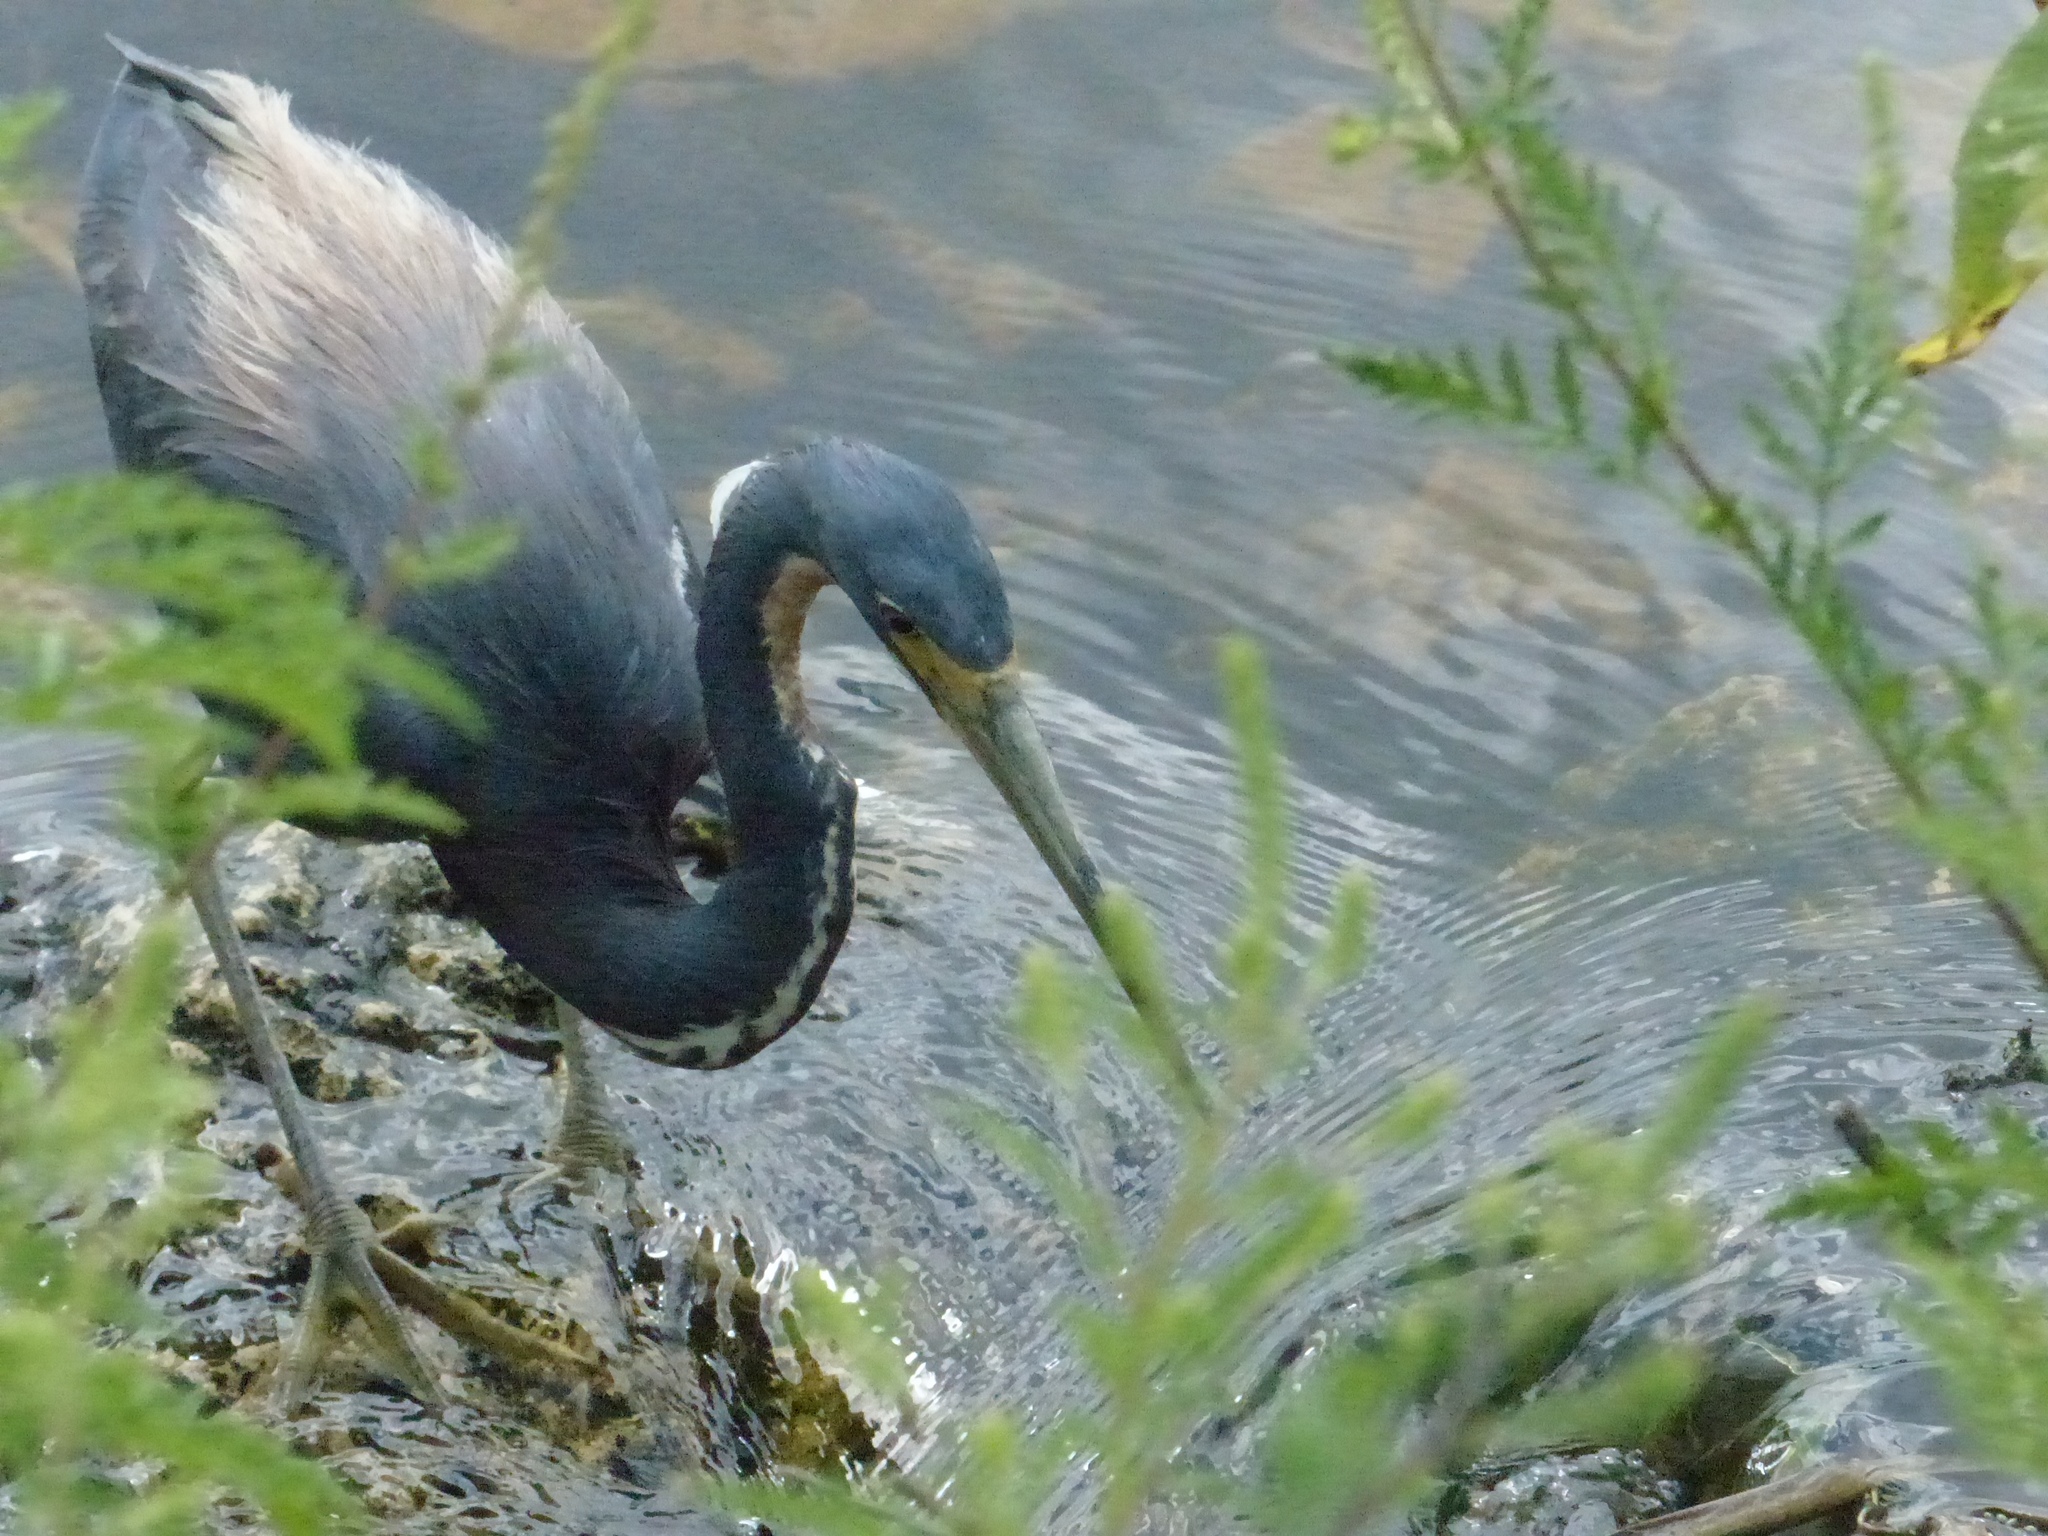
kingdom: Animalia
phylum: Chordata
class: Aves
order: Pelecaniformes
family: Ardeidae
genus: Egretta
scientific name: Egretta tricolor
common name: Tricolored heron
